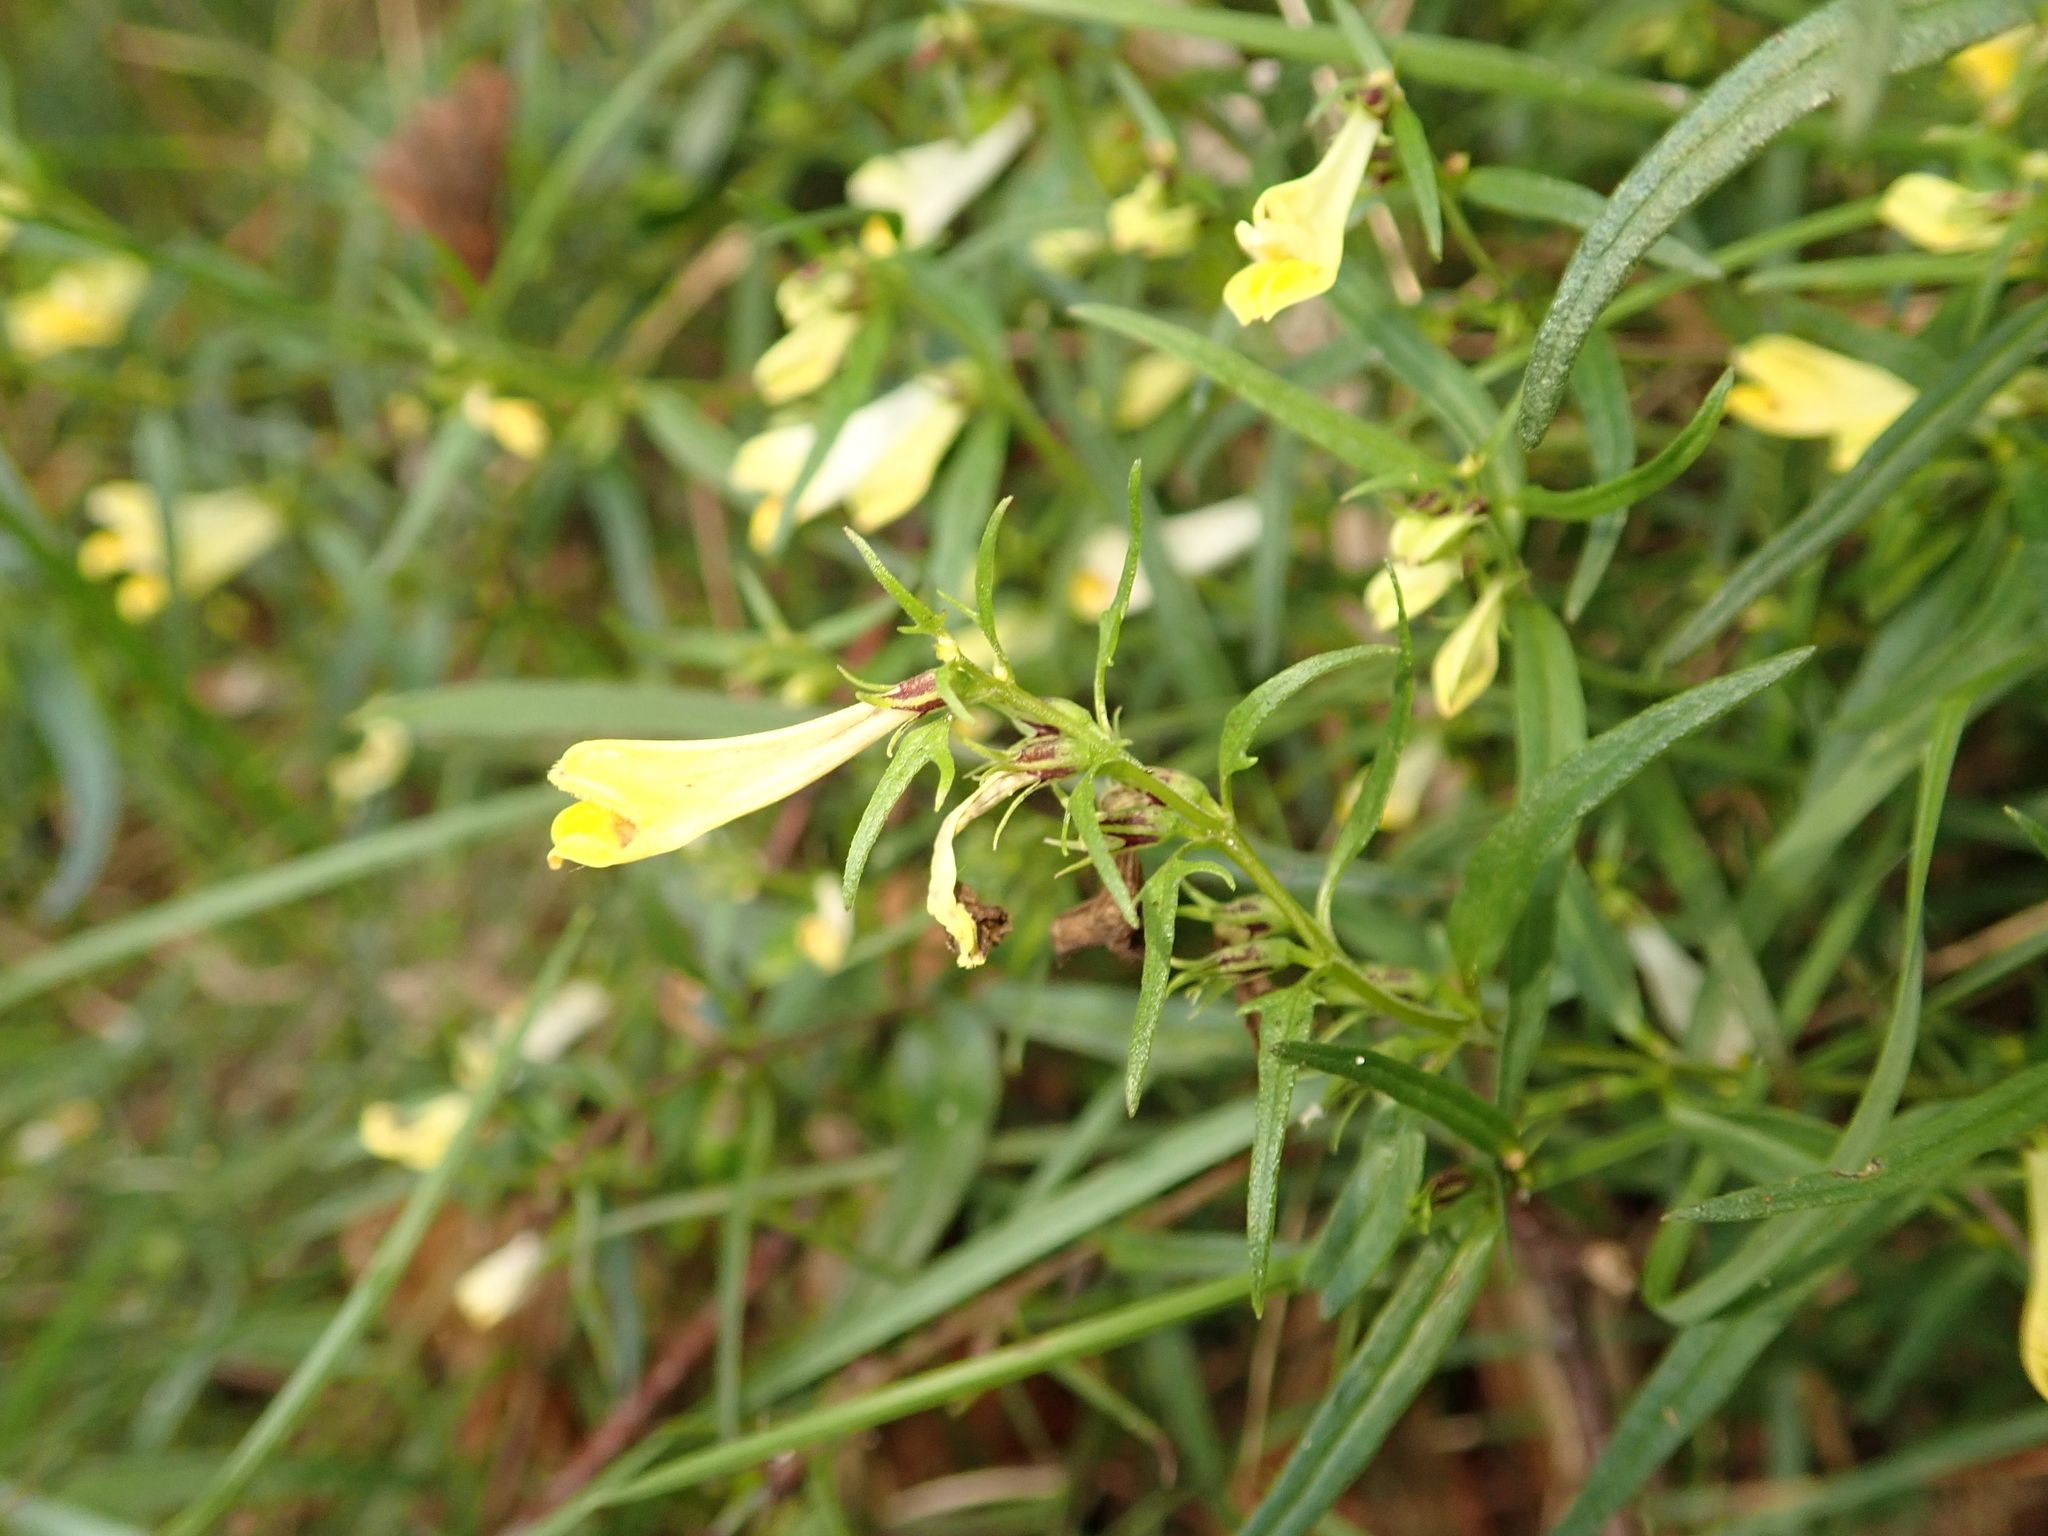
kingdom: Plantae
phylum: Tracheophyta
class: Magnoliopsida
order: Lamiales
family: Orobanchaceae
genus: Melampyrum
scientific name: Melampyrum pratense
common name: Common cow-wheat
